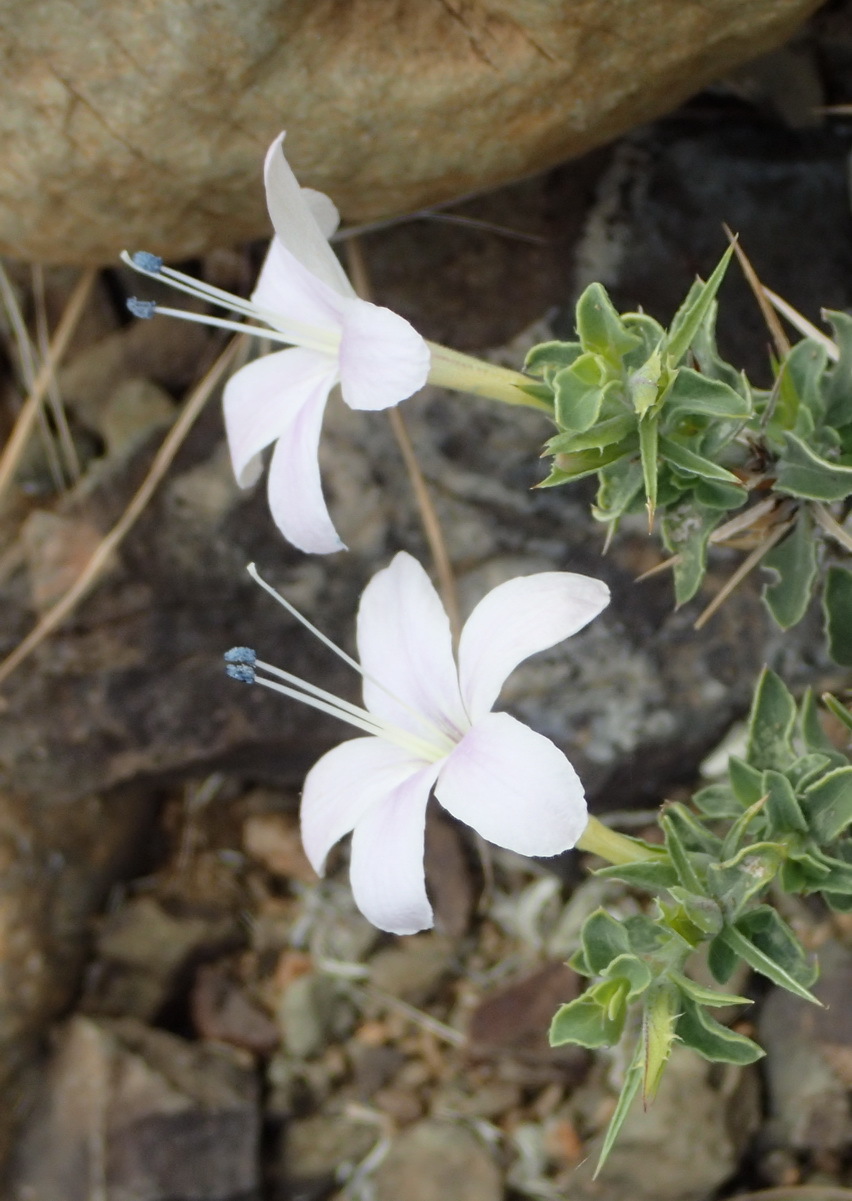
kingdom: Plantae
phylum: Tracheophyta
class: Magnoliopsida
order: Lamiales
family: Acanthaceae
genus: Barleria
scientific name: Barleria irritans
